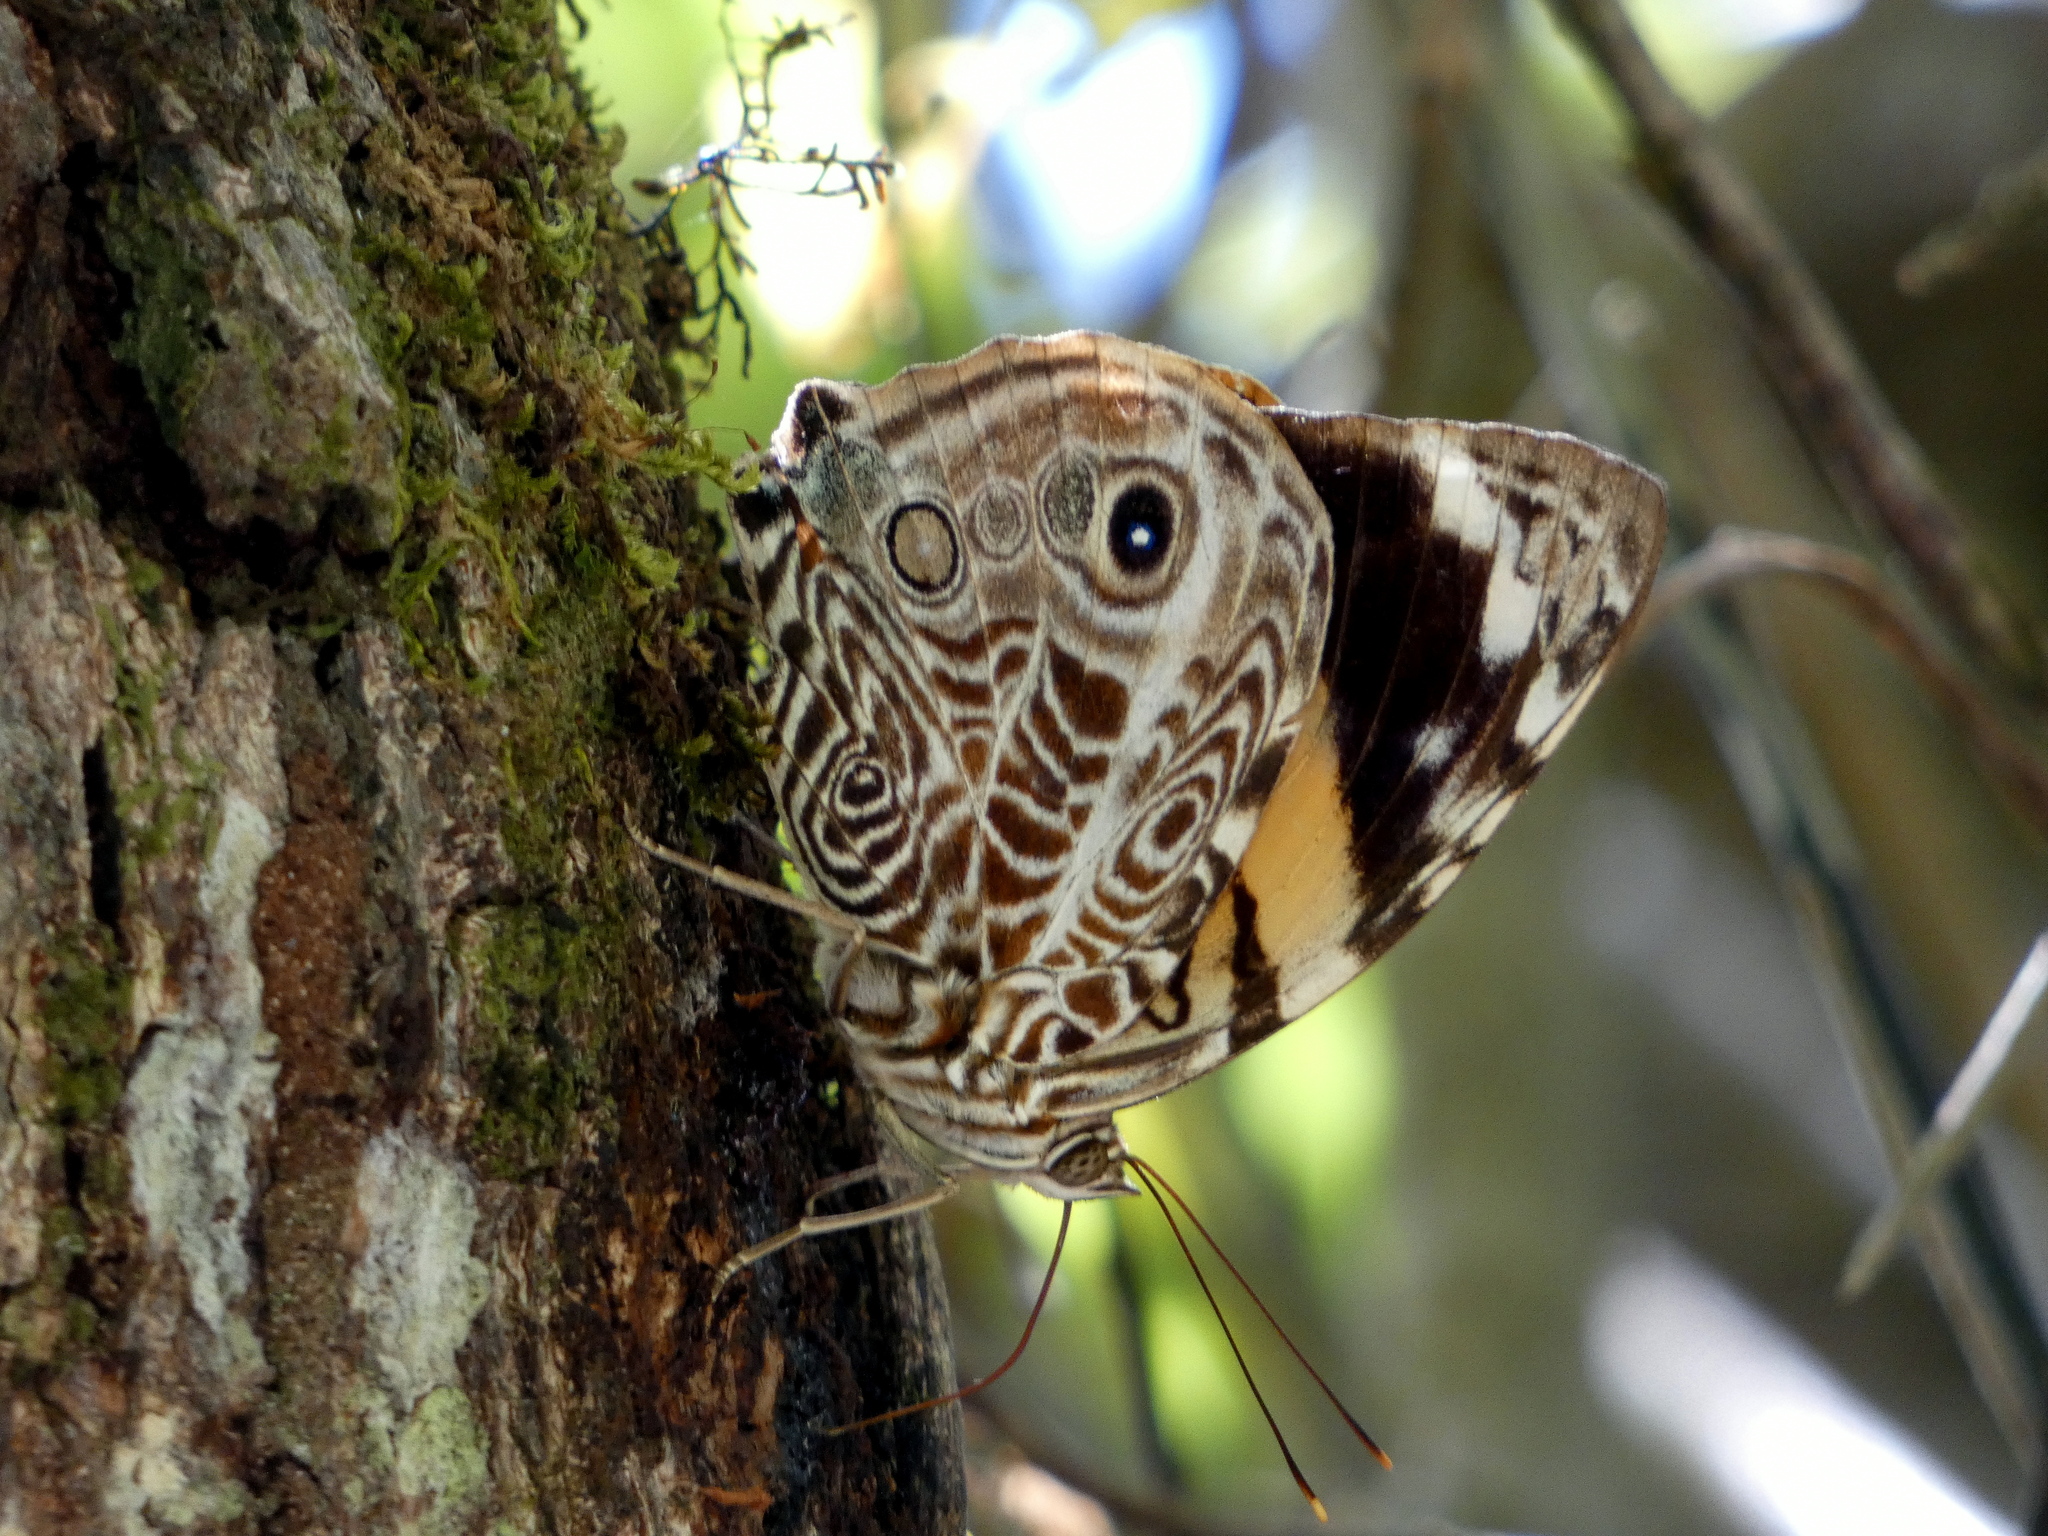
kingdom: Animalia
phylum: Arthropoda
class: Insecta
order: Lepidoptera
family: Nymphalidae
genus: Smyrna
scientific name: Smyrna blomfildia
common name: Blomfild's beauty
